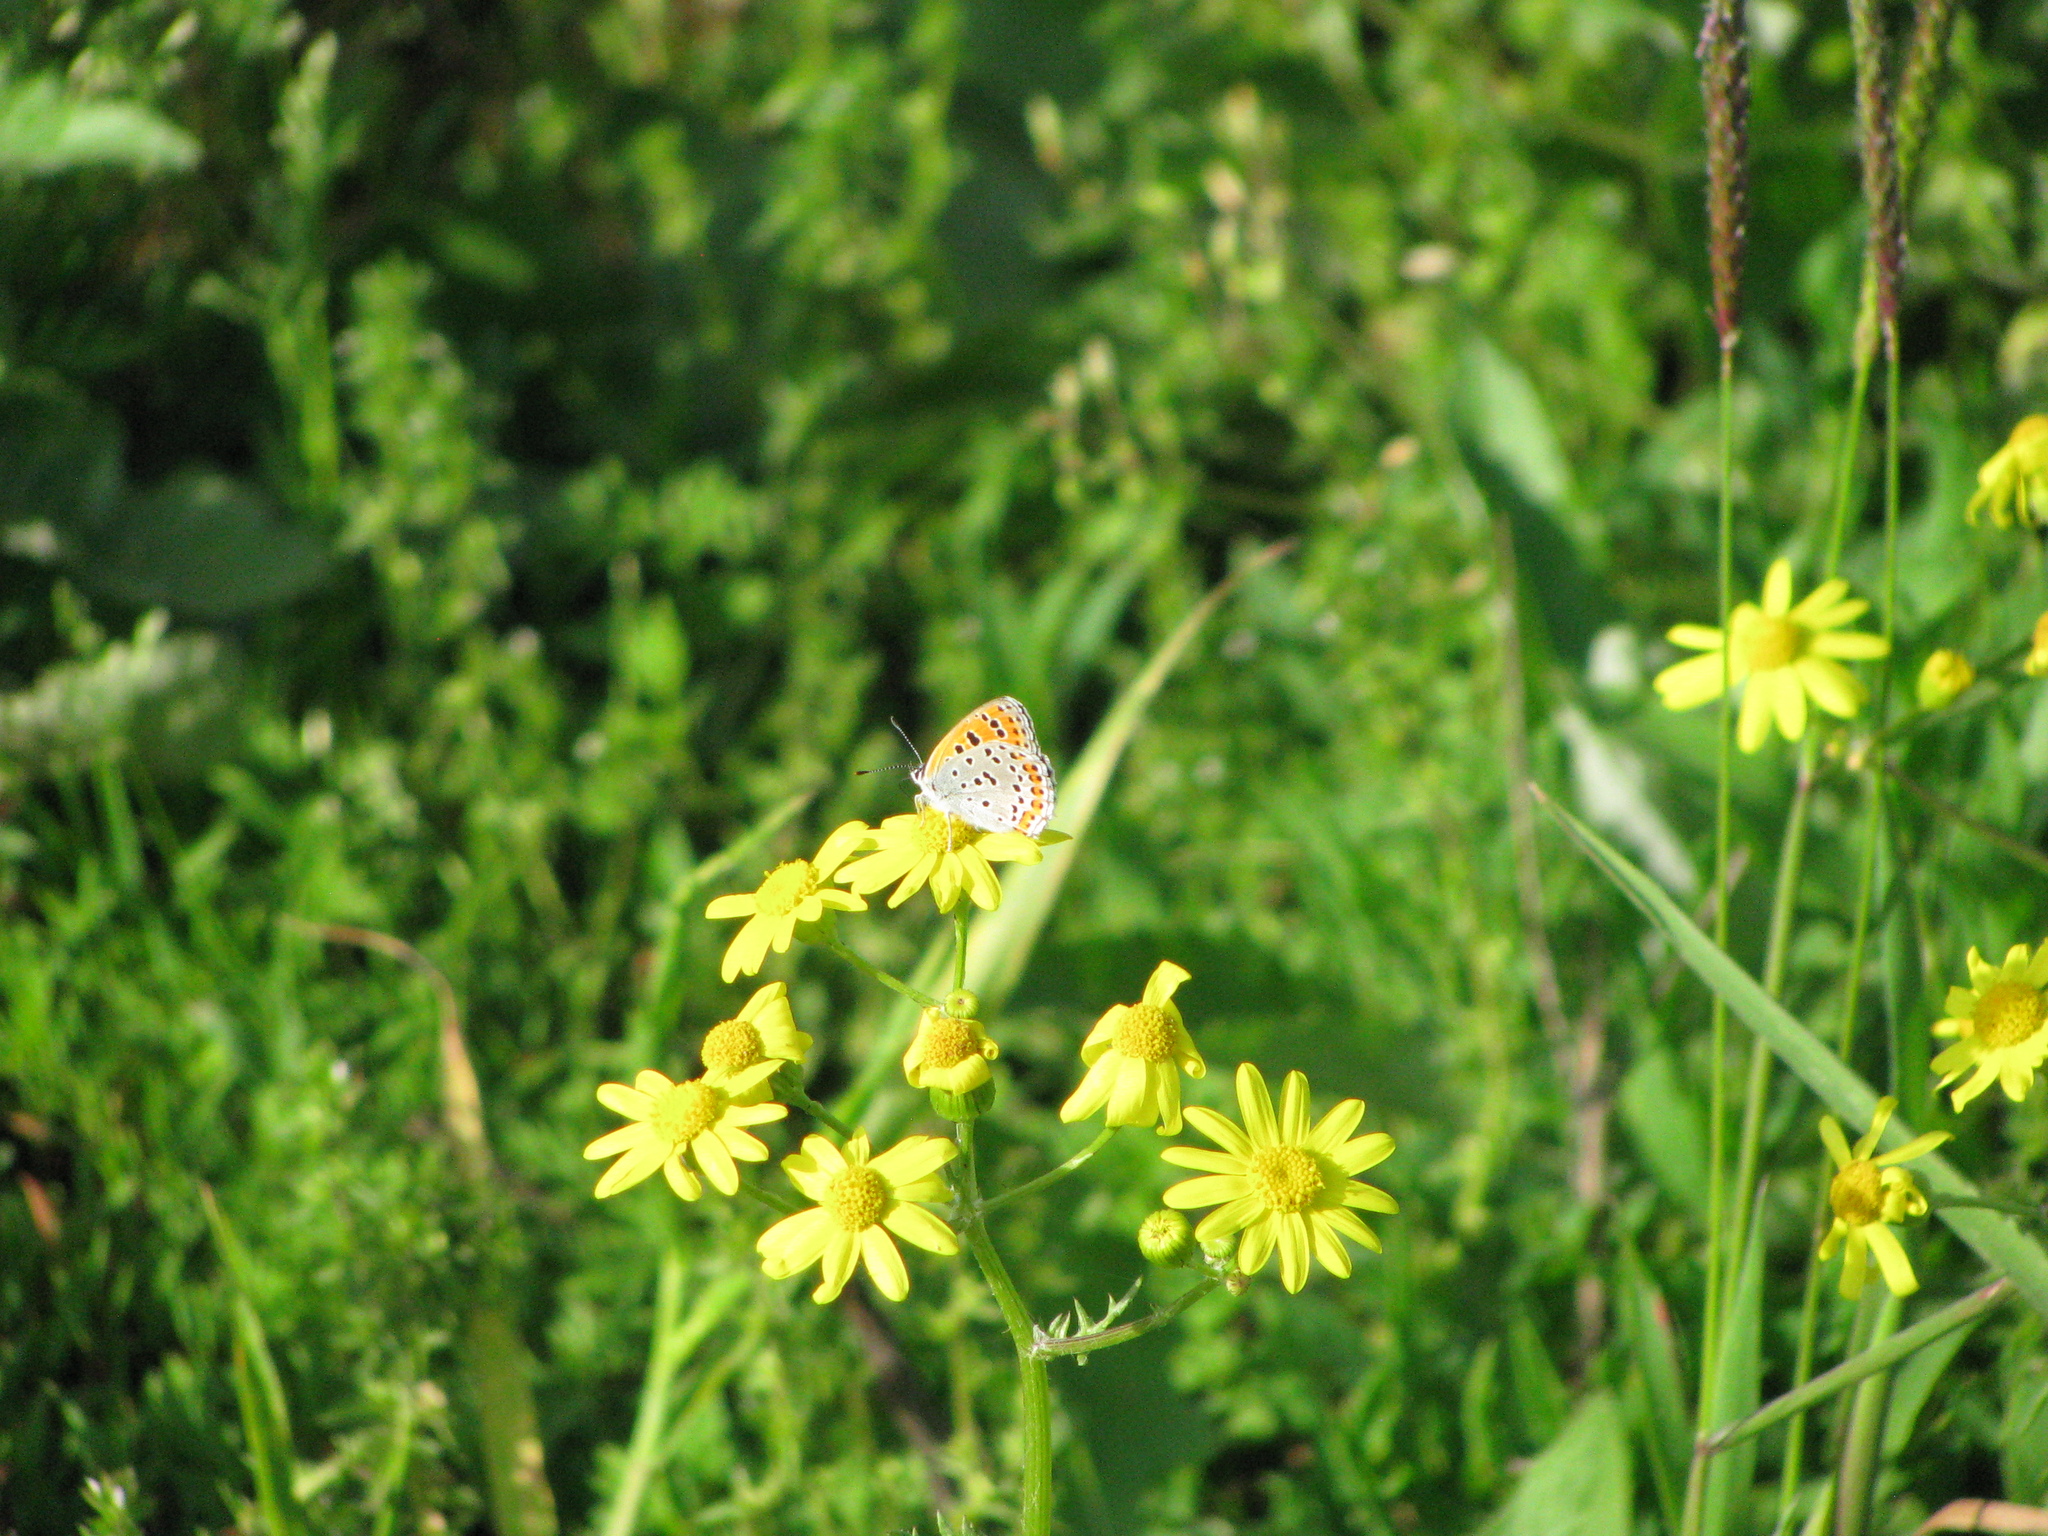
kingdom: Animalia
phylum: Arthropoda
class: Insecta
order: Lepidoptera
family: Lycaenidae
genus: Thersamonia
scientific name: Thersamonia thersamon
